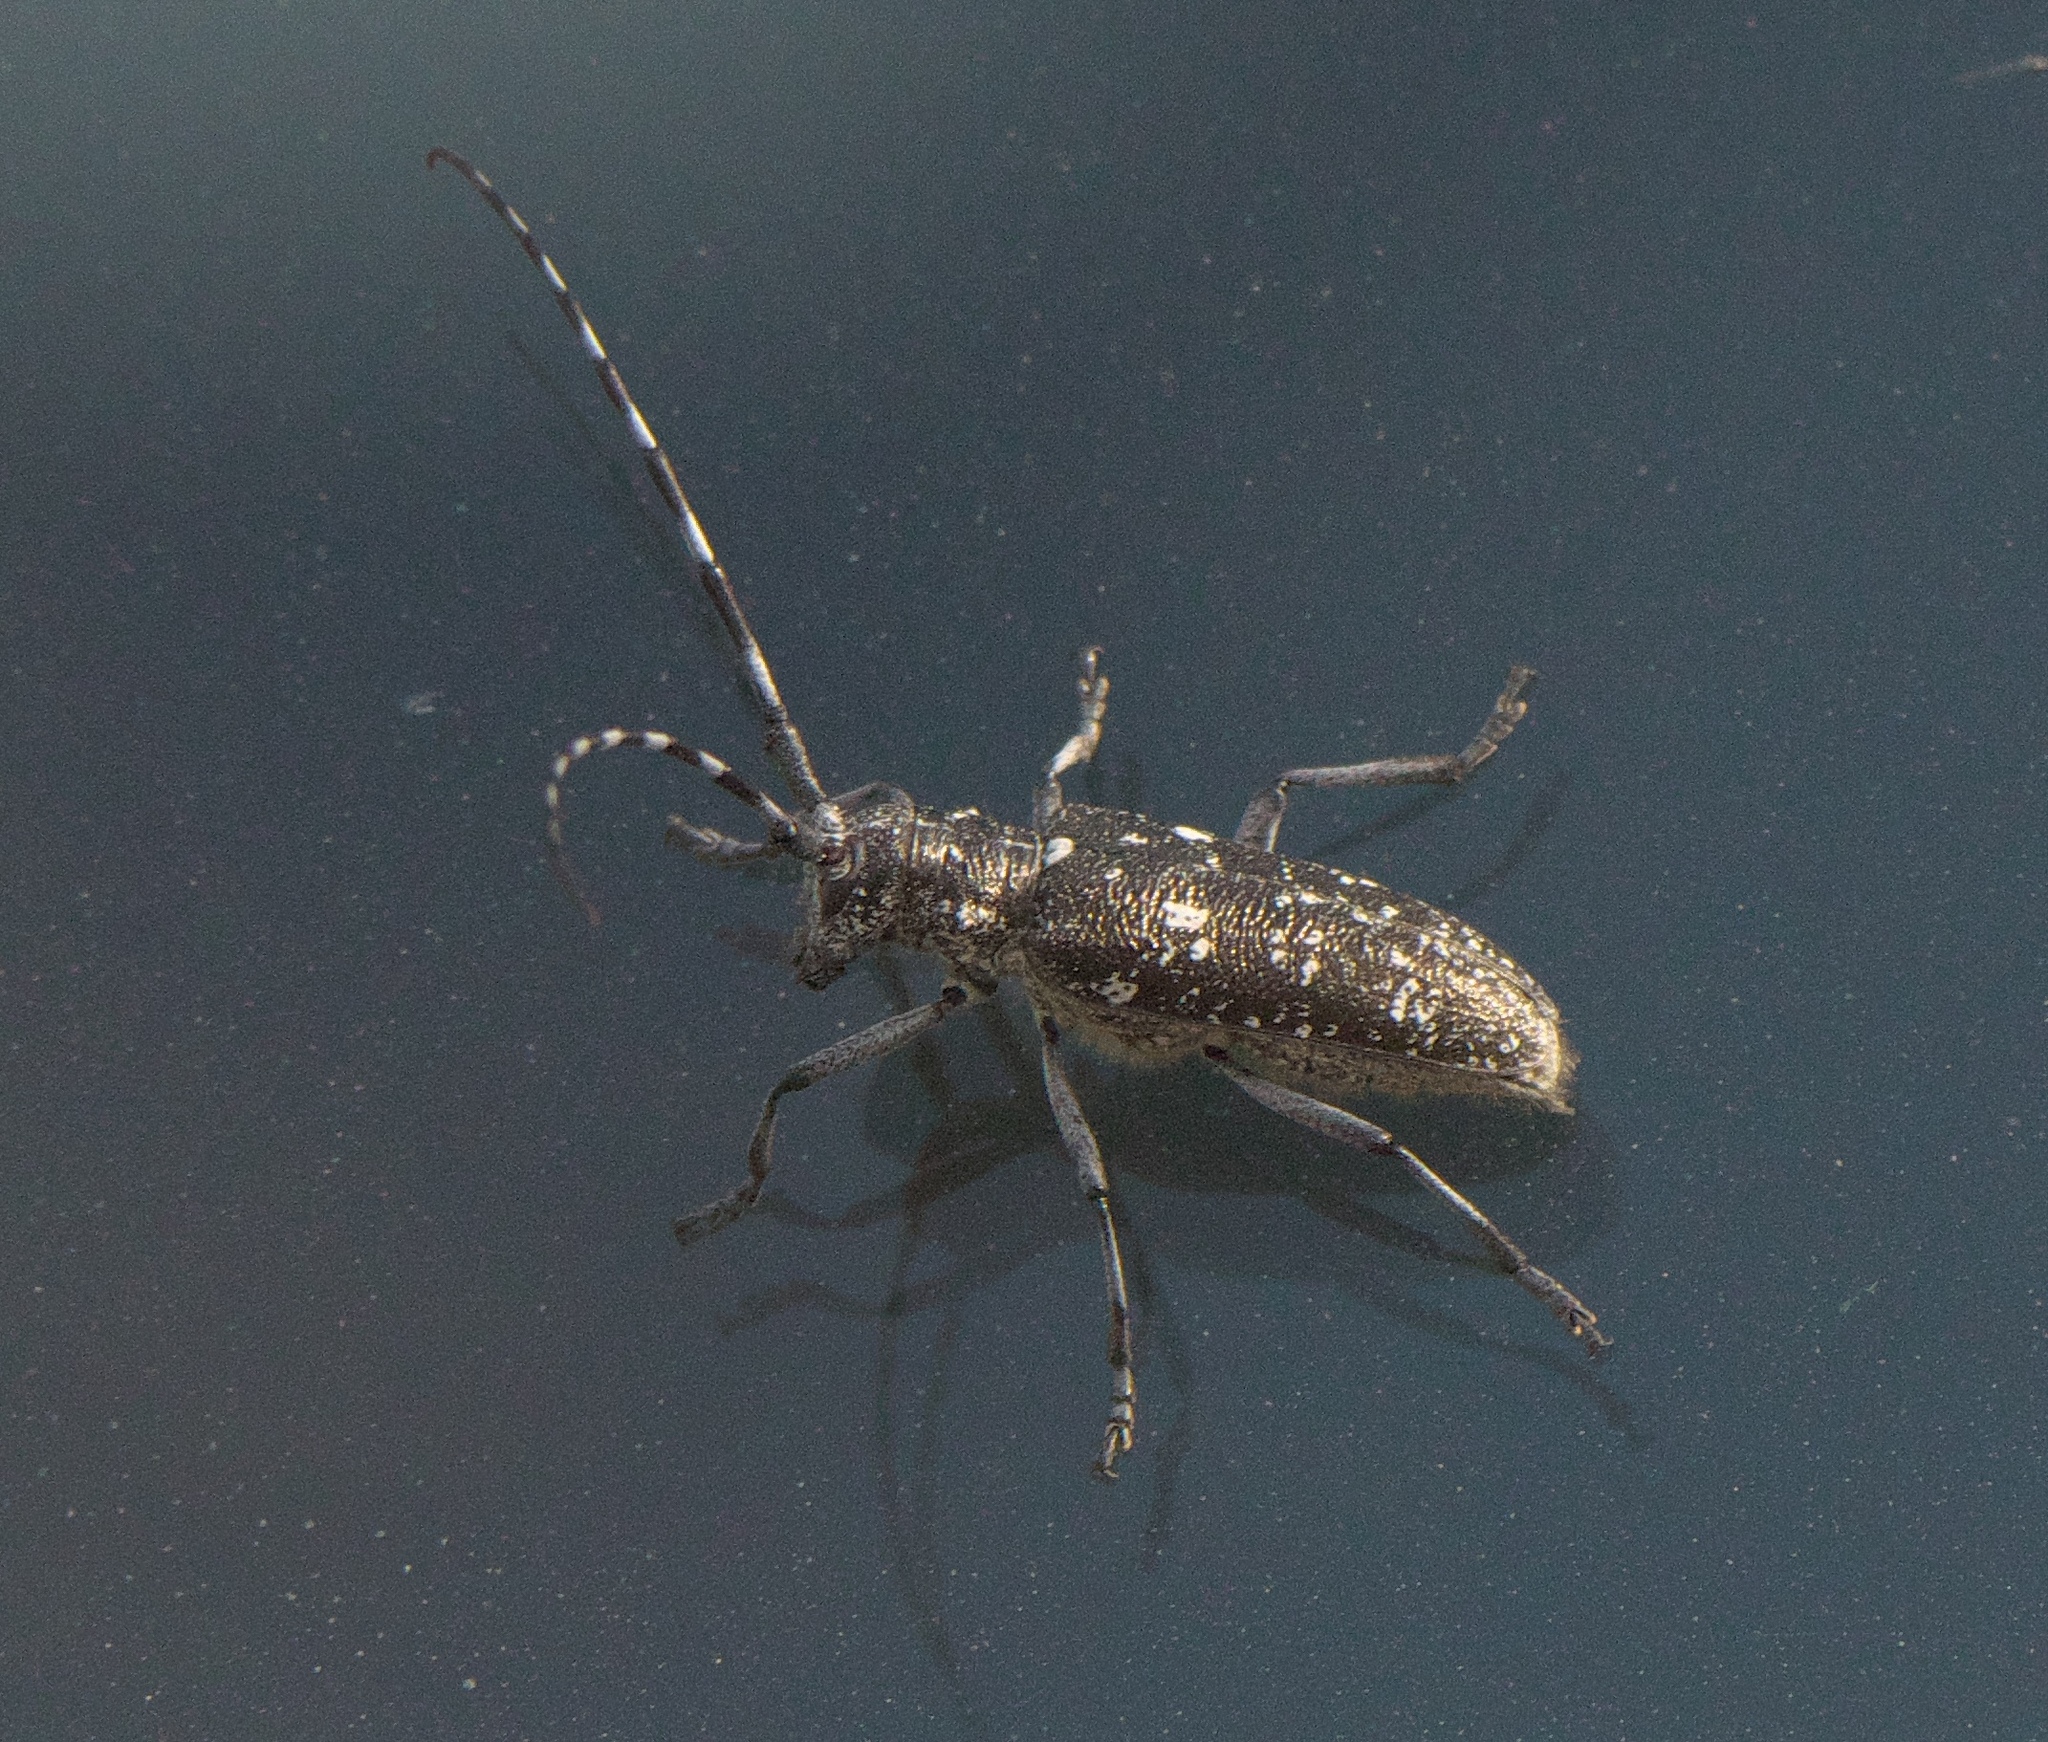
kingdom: Animalia
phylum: Arthropoda
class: Insecta
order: Coleoptera
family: Cerambycidae
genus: Monochamus
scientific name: Monochamus scutellatus
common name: White-spotted sawyer beetle
